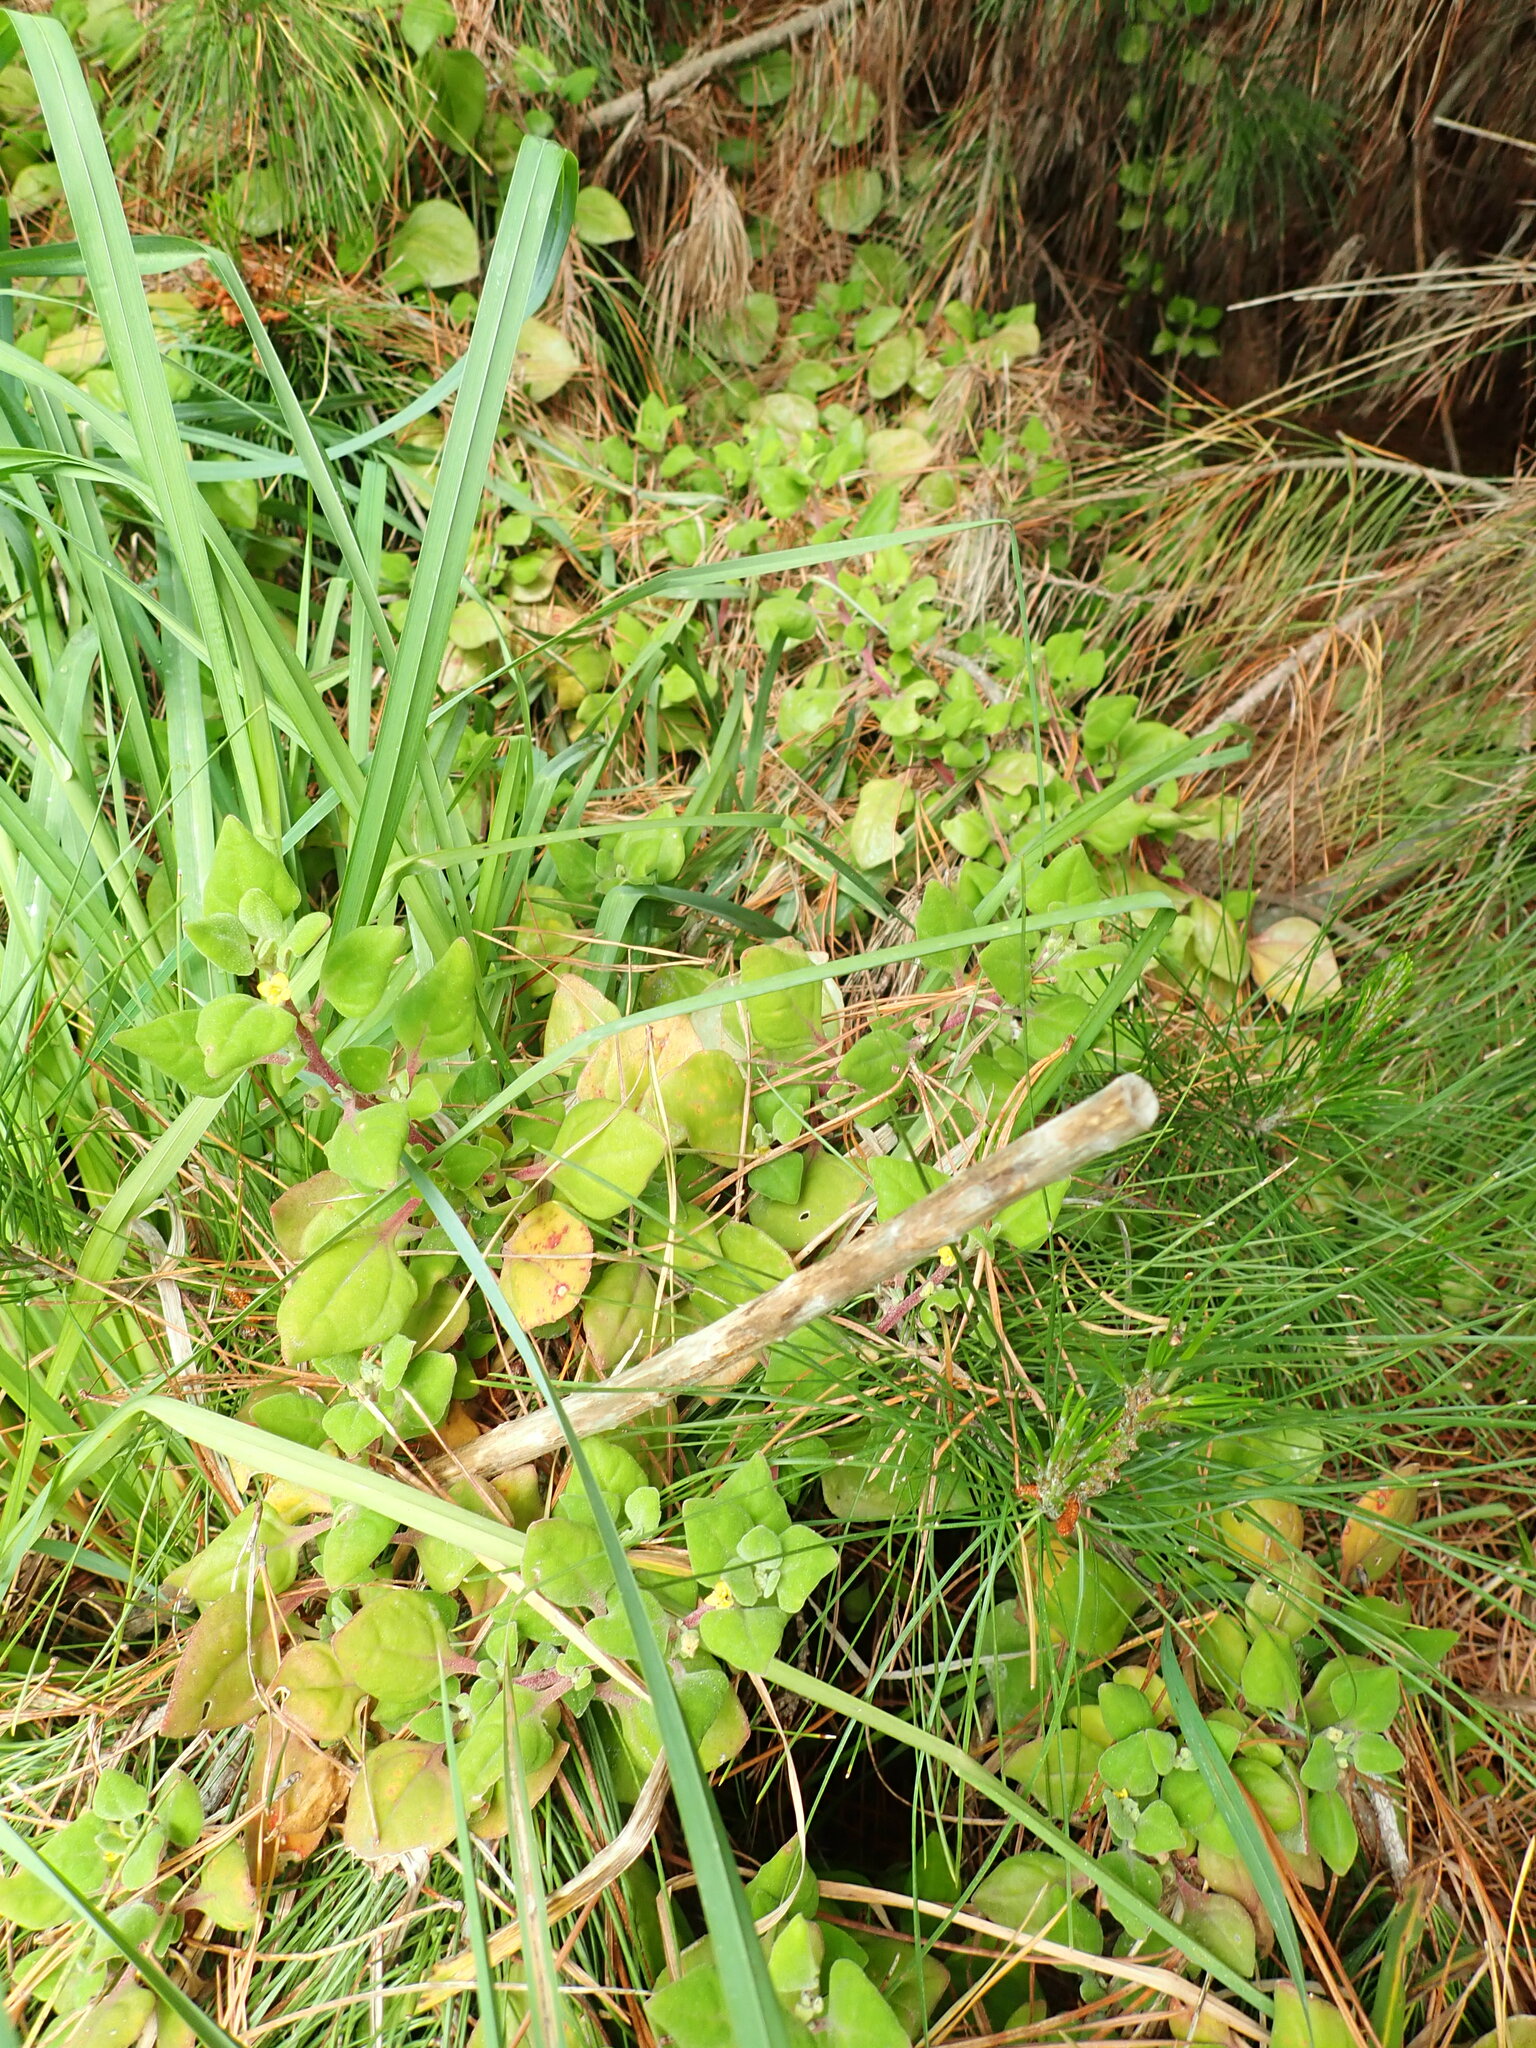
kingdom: Plantae
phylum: Tracheophyta
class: Magnoliopsida
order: Caryophyllales
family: Aizoaceae
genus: Tetragonia
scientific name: Tetragonia implexicoma
